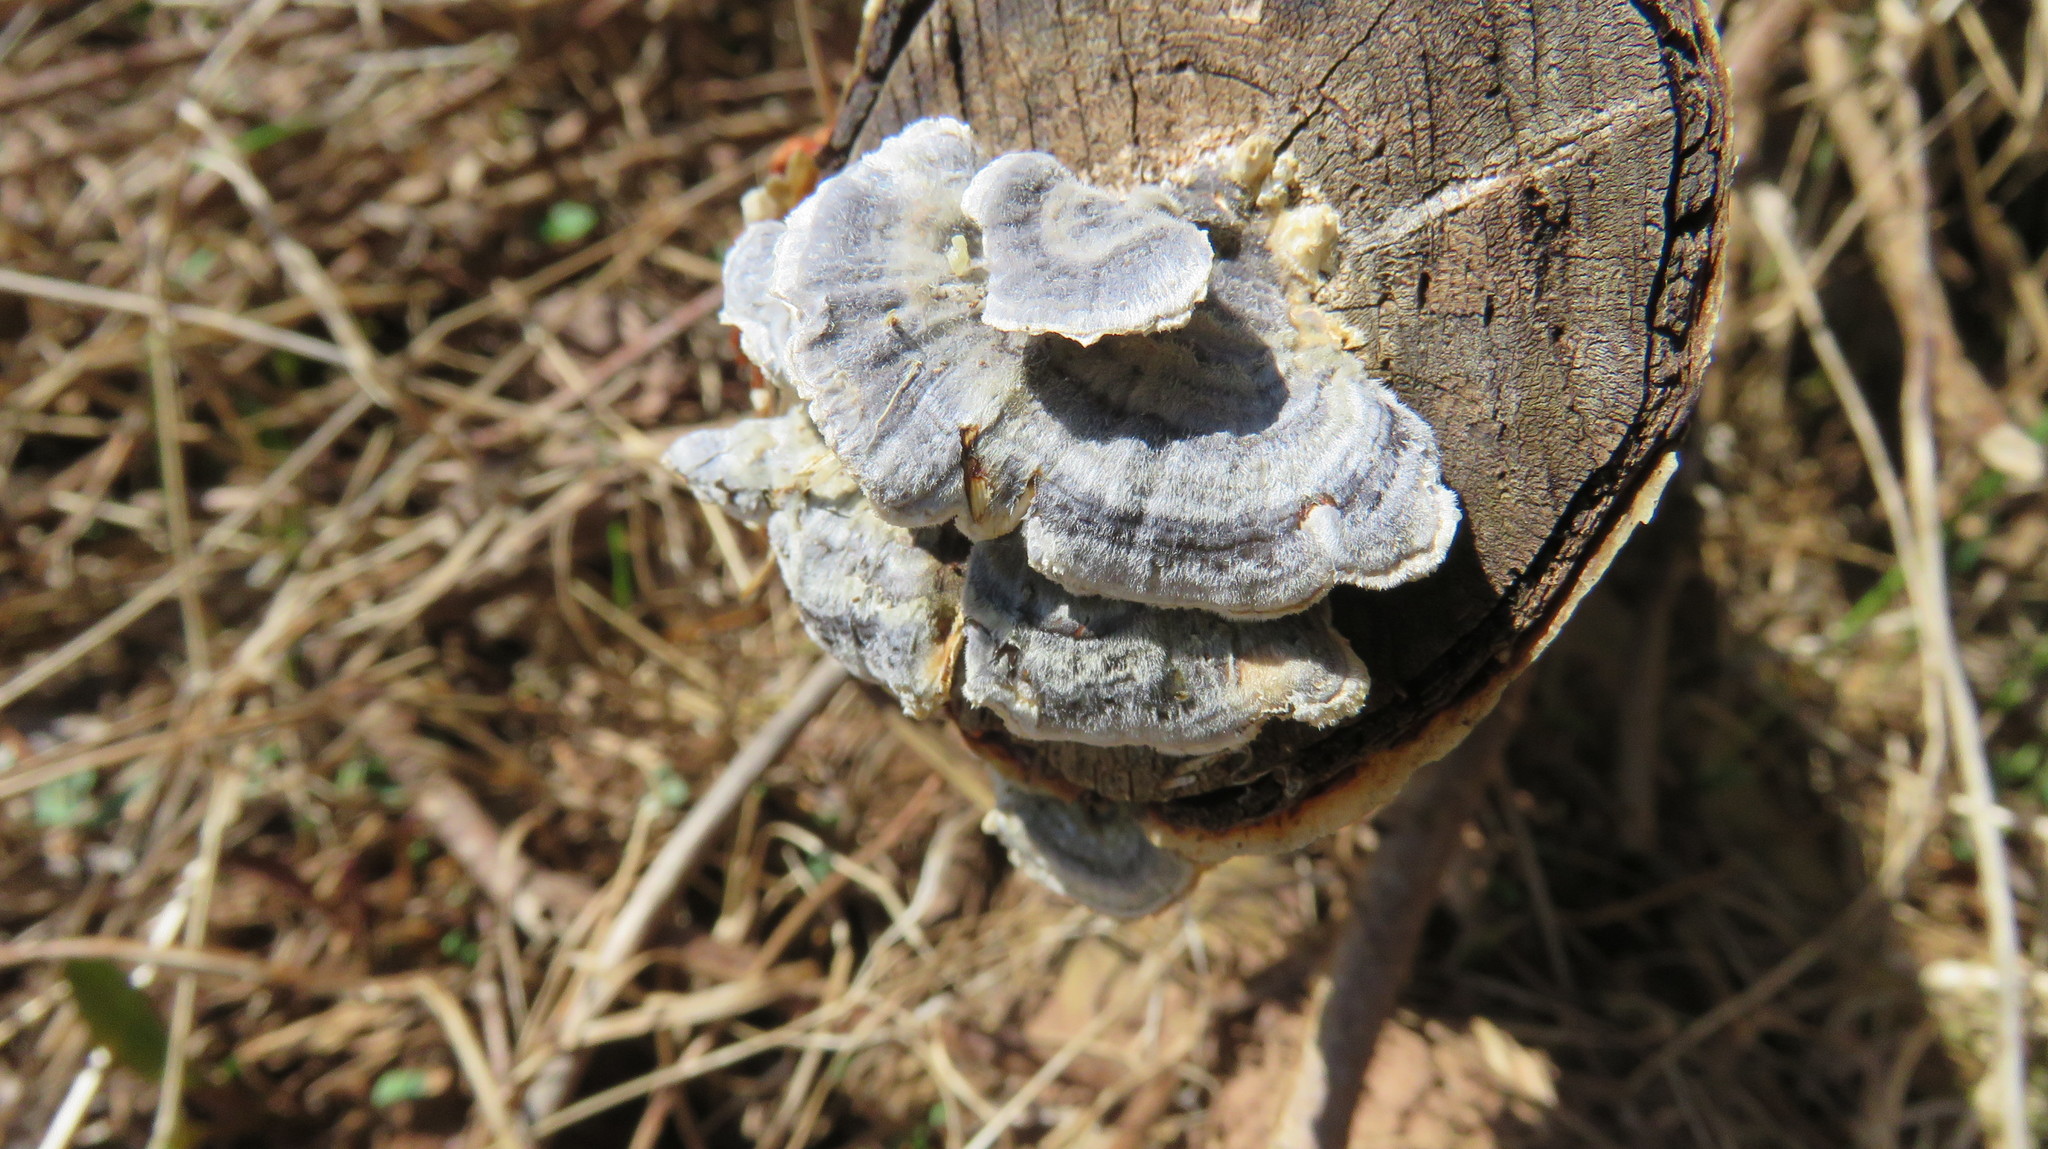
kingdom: Fungi
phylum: Basidiomycota
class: Agaricomycetes
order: Polyporales
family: Polyporaceae
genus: Trametes
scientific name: Trametes versicolor
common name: Turkeytail
